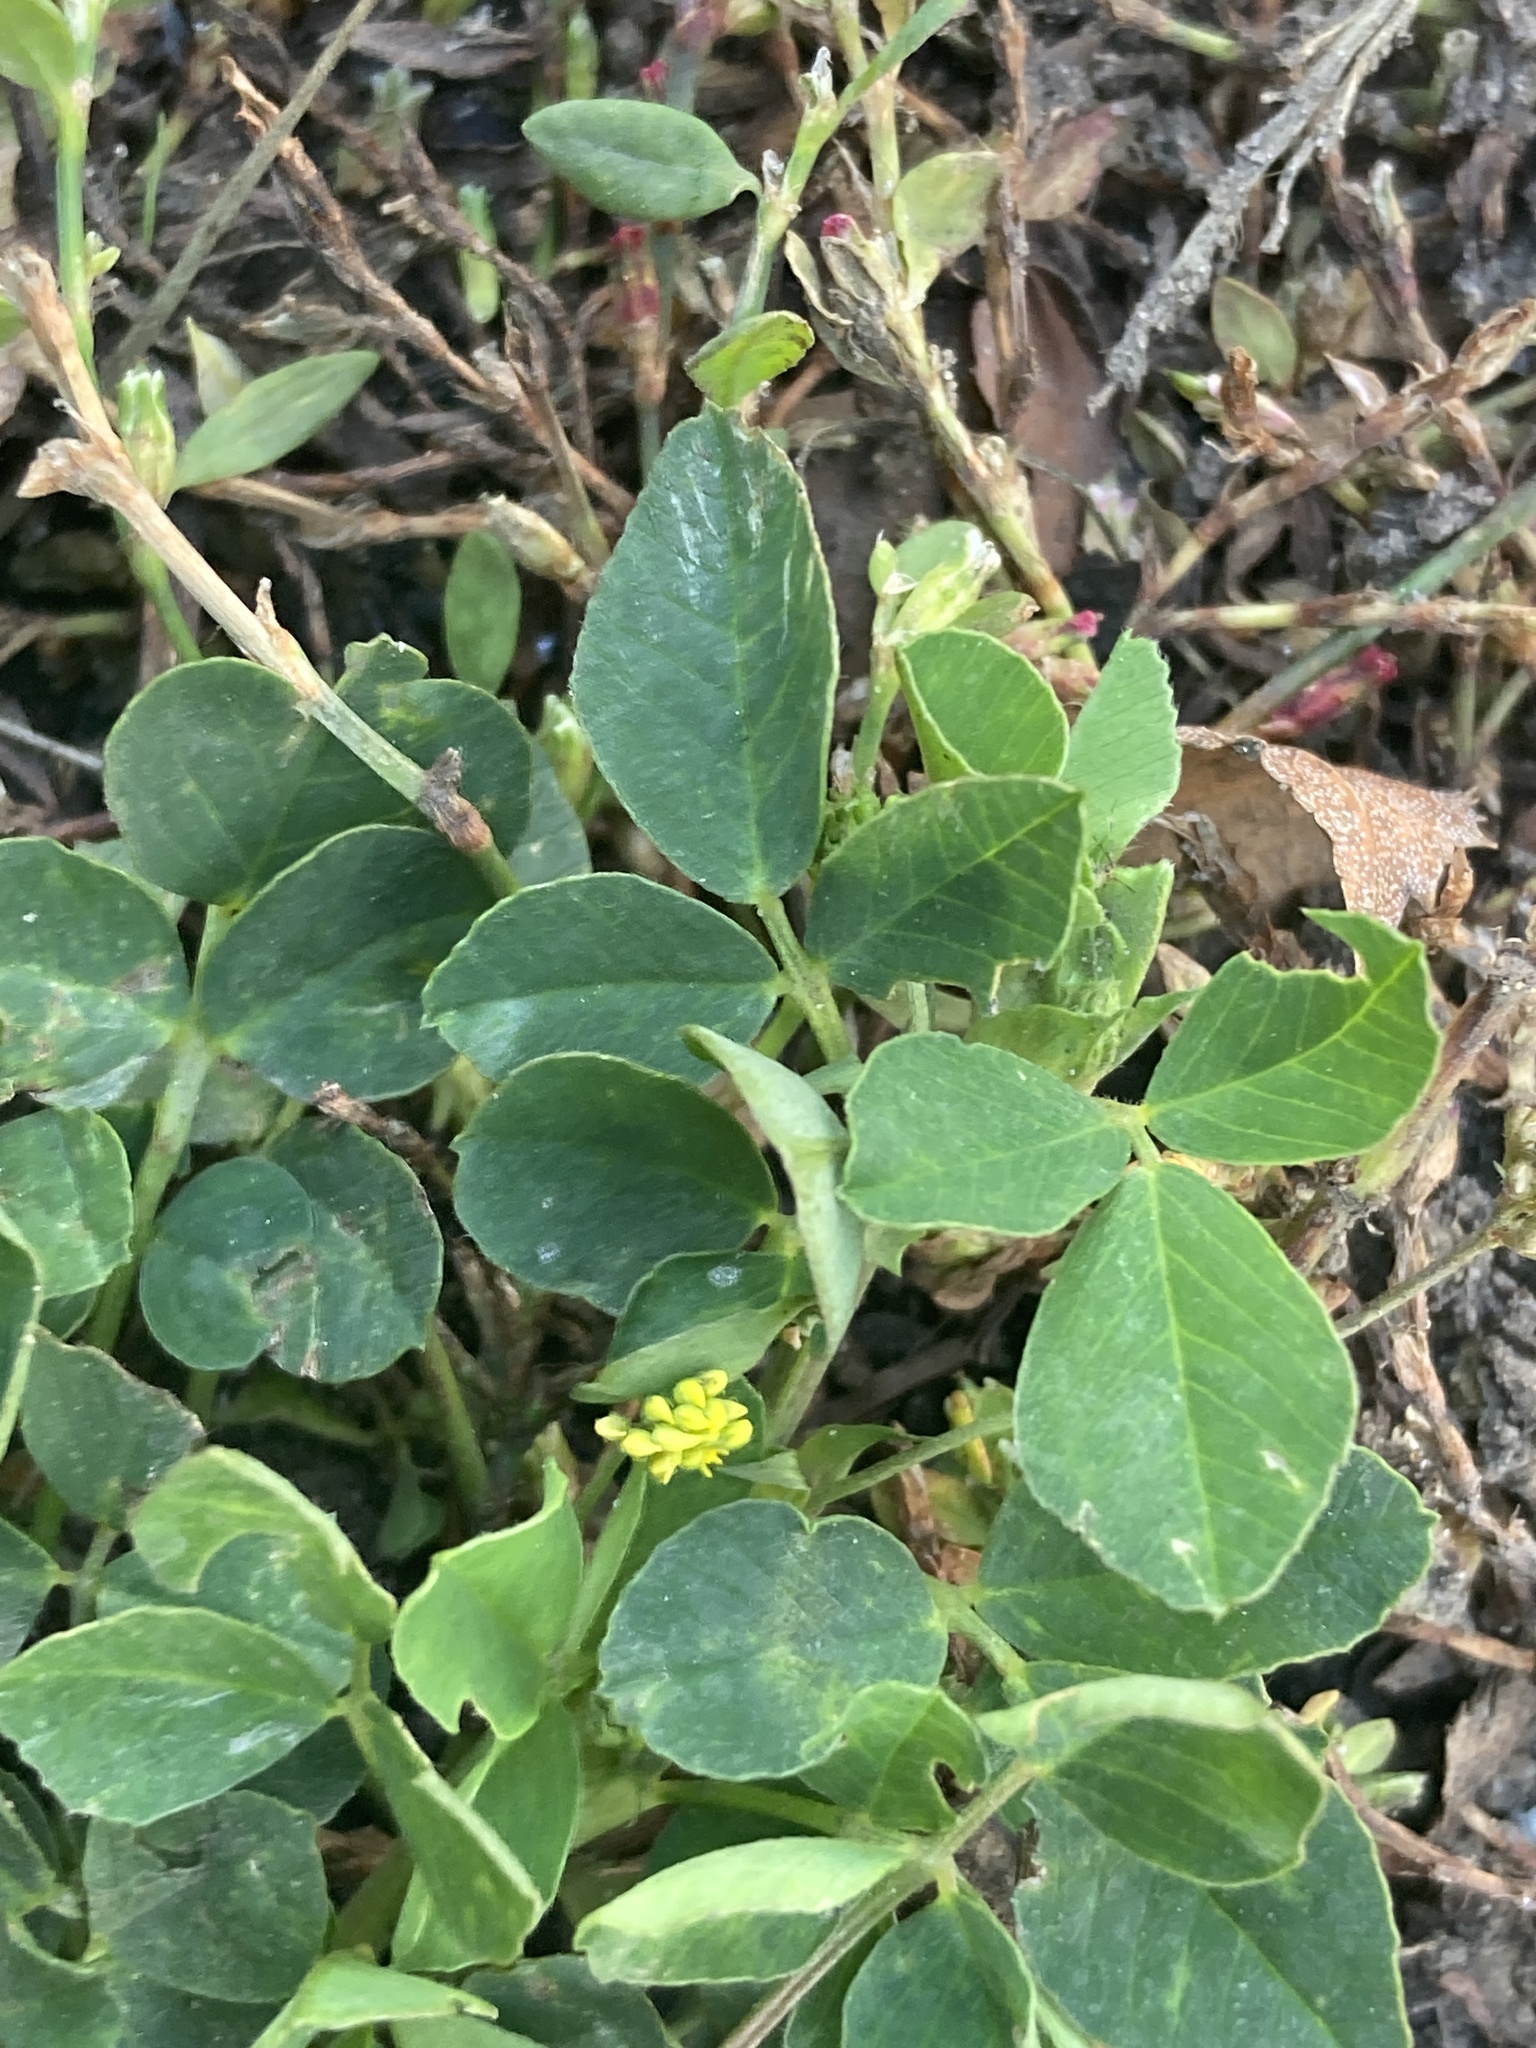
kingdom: Plantae
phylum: Tracheophyta
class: Magnoliopsida
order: Fabales
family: Fabaceae
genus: Medicago
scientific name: Medicago lupulina
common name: Black medick
